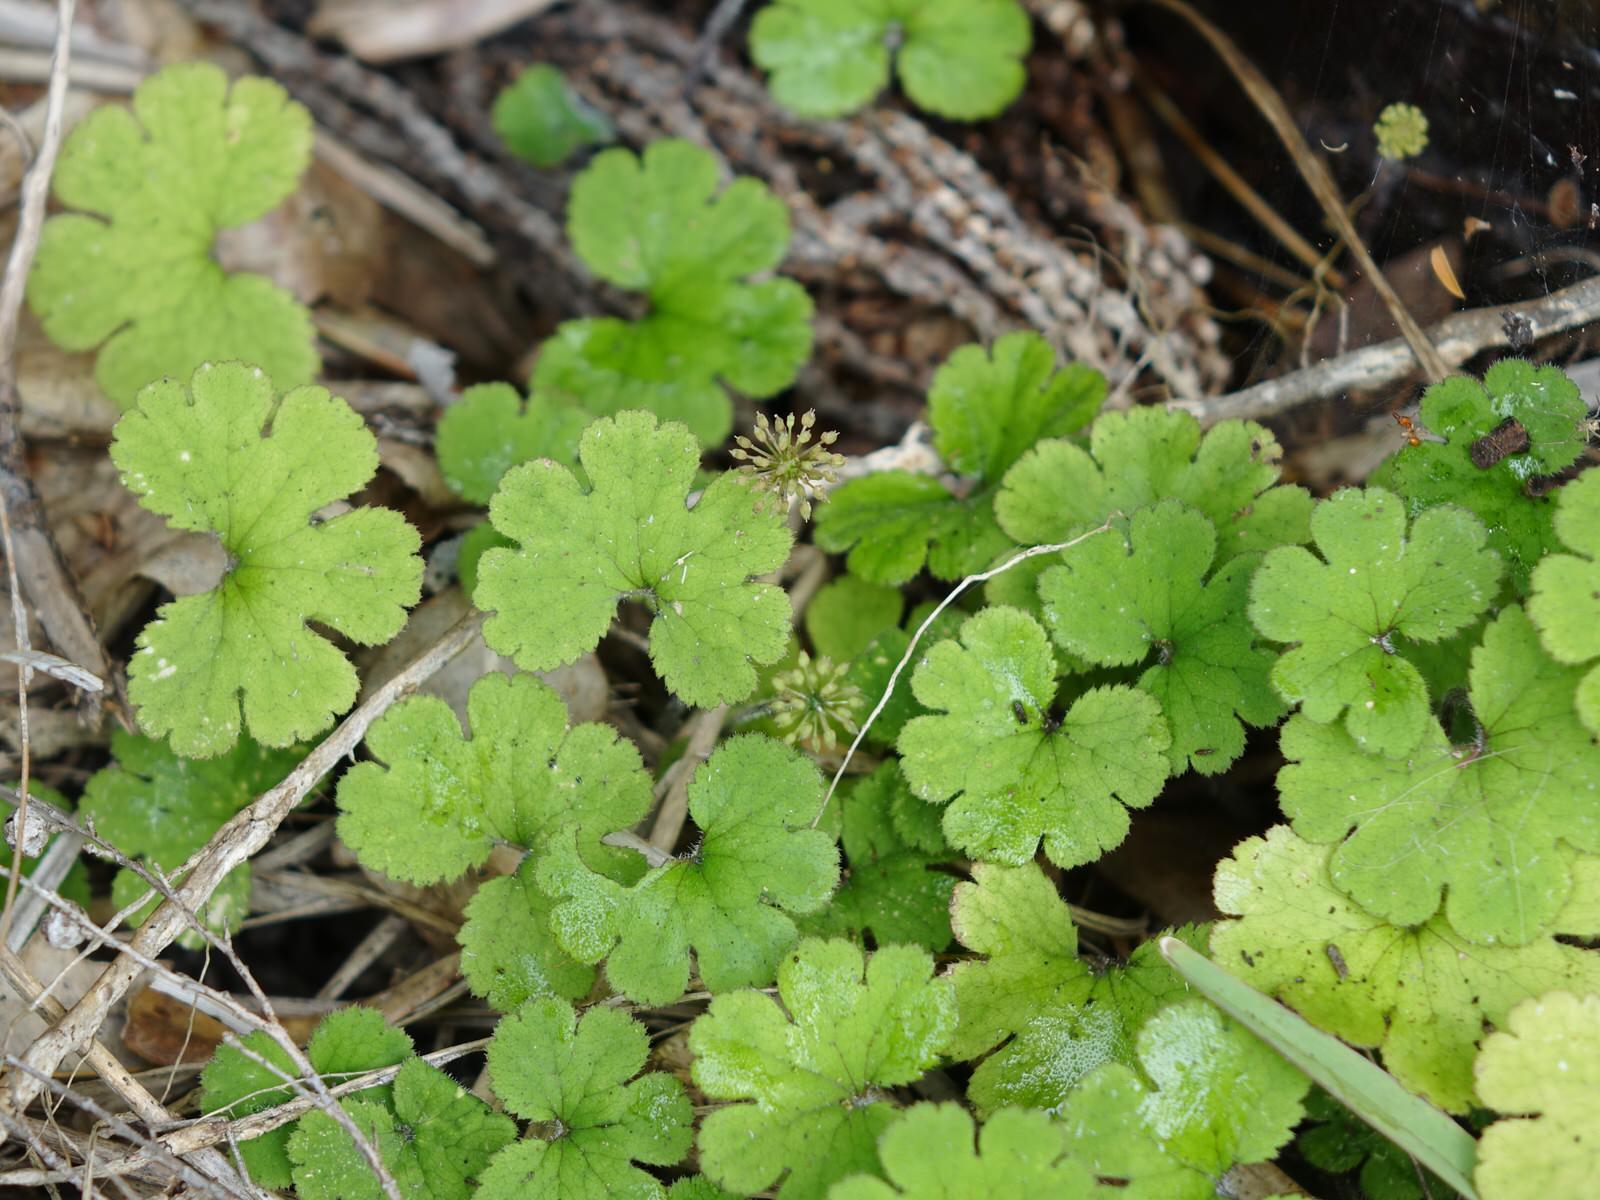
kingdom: Plantae
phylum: Tracheophyta
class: Magnoliopsida
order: Apiales
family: Araliaceae
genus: Hydrocotyle
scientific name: Hydrocotyle elongata
